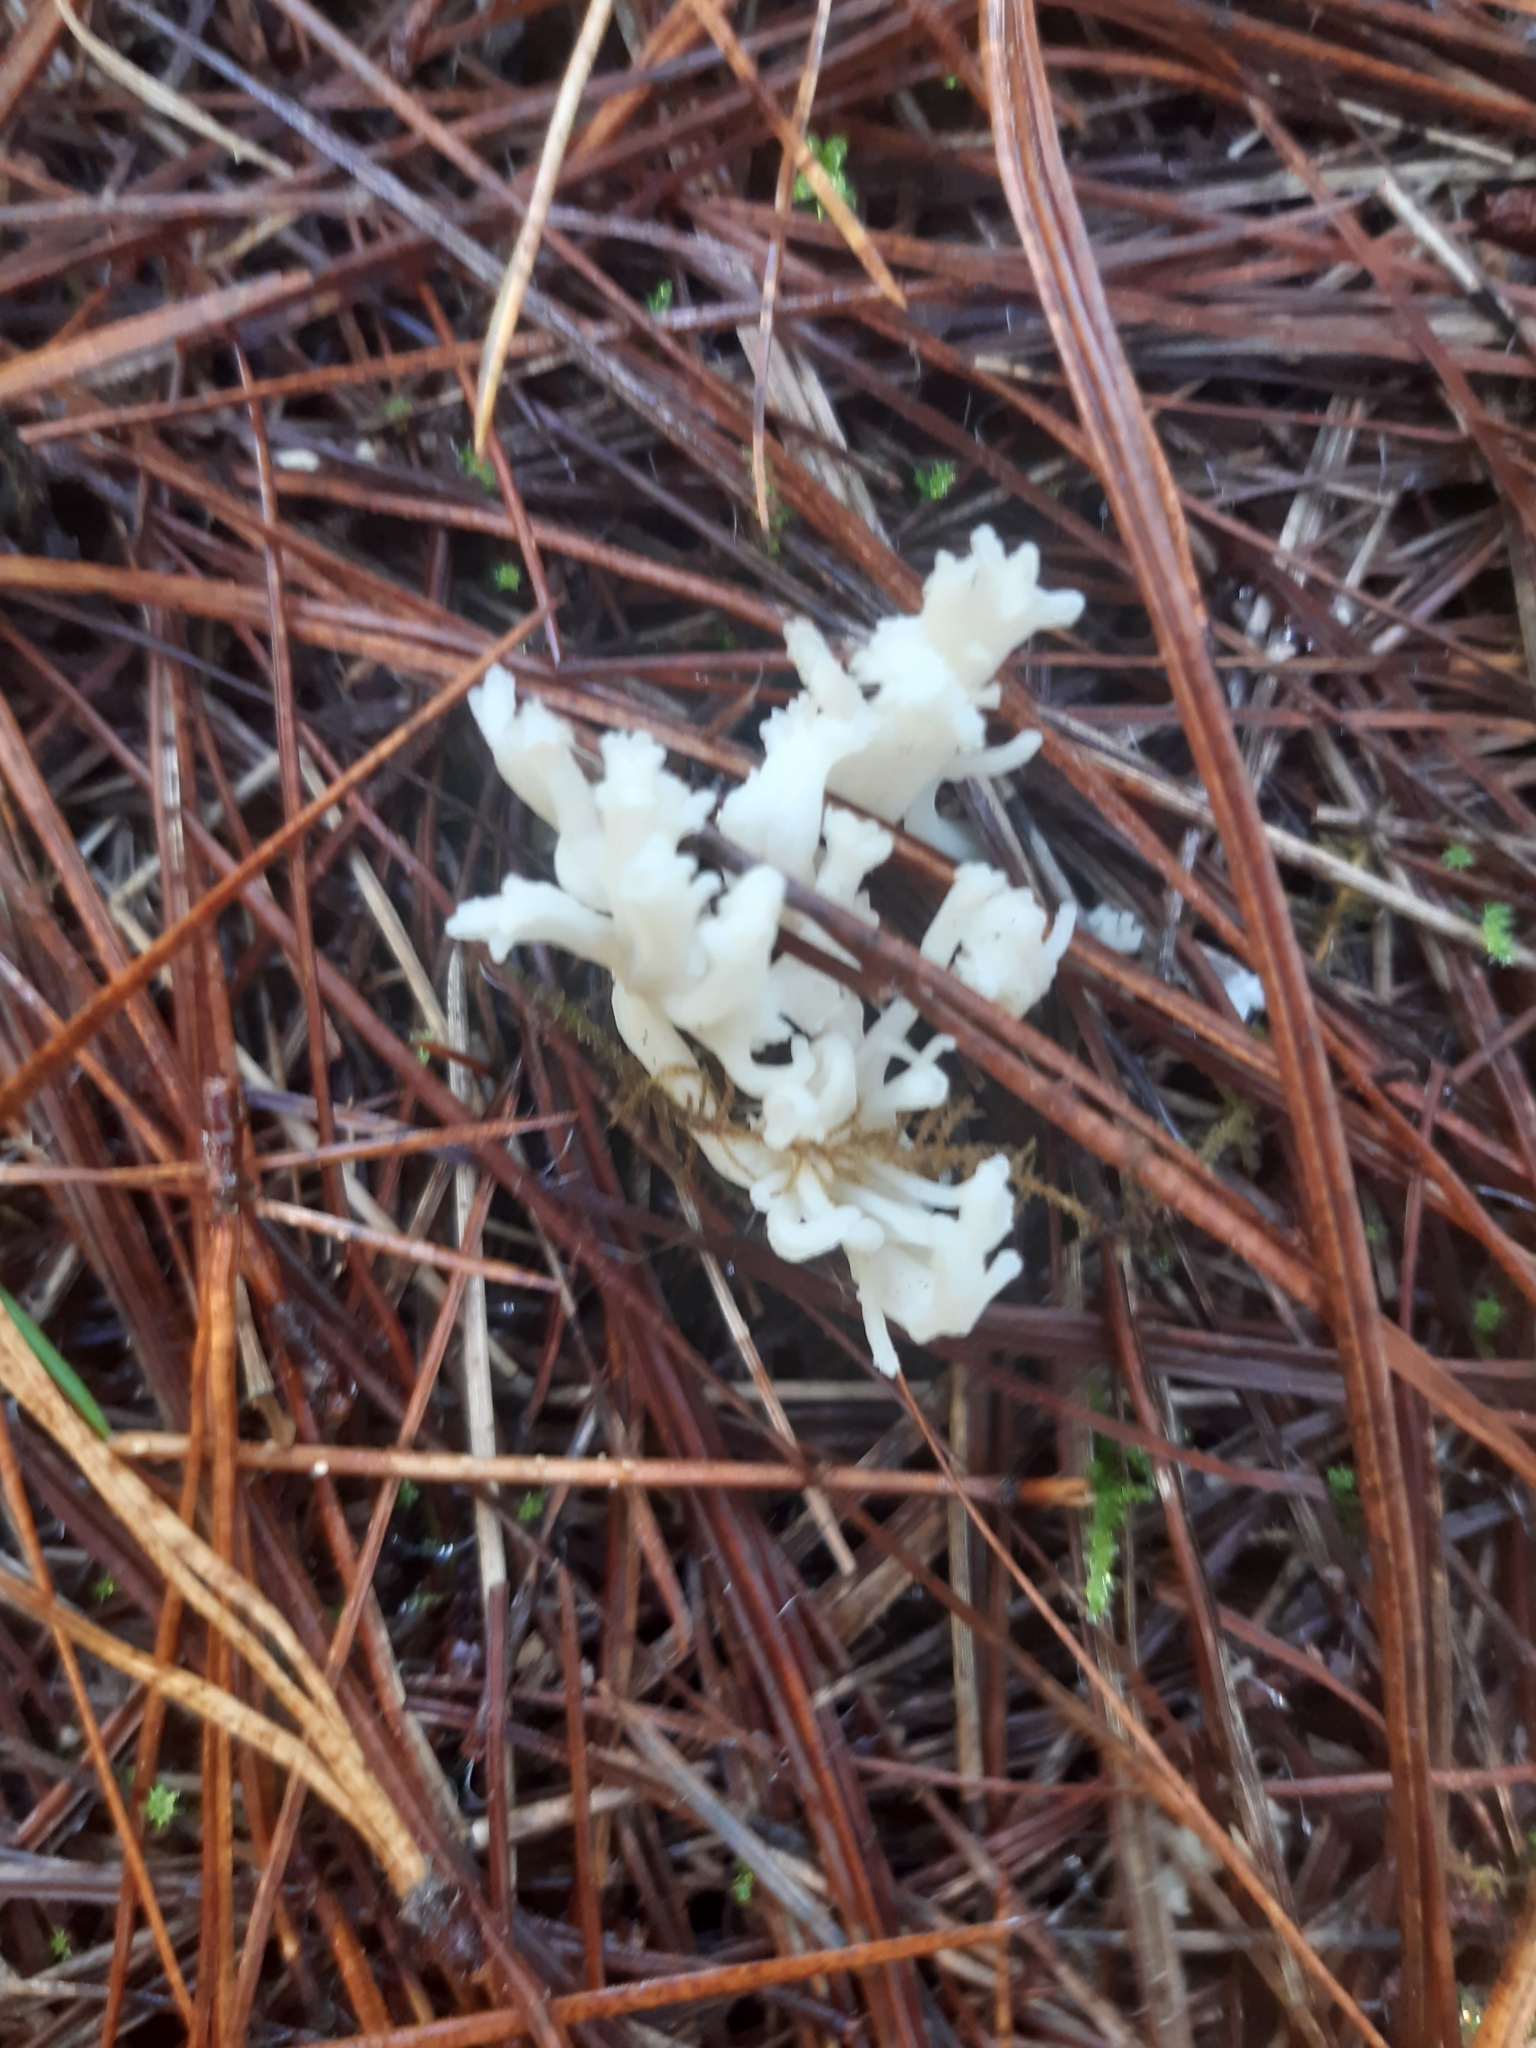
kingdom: Fungi
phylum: Basidiomycota
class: Agaricomycetes
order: Cantharellales
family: Hydnaceae
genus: Clavulina
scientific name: Clavulina rugosa
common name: Wrinkled club
